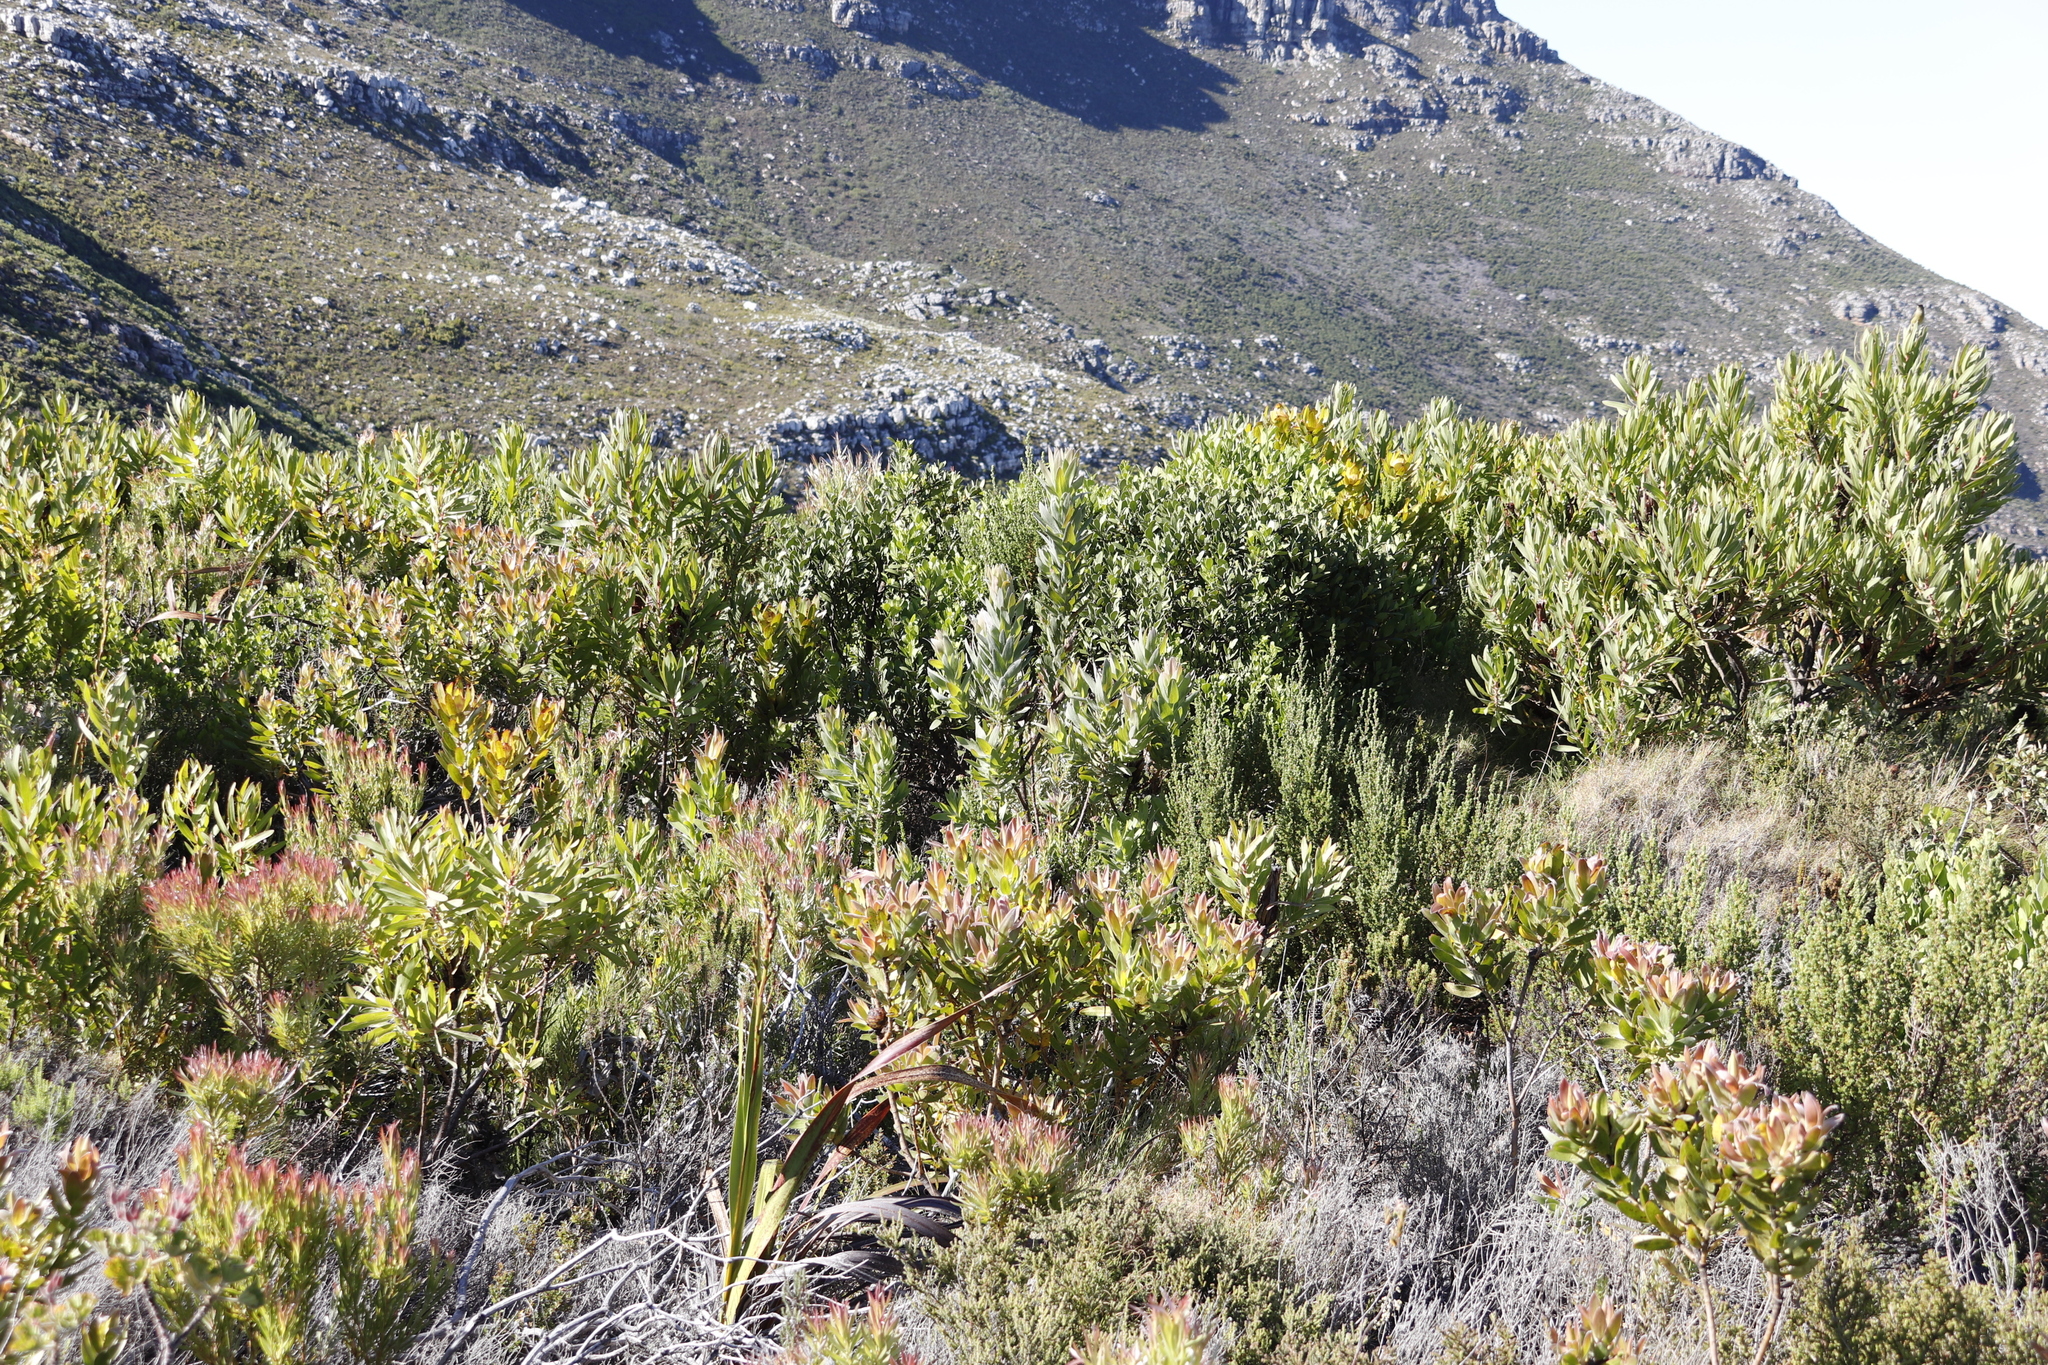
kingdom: Plantae
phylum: Tracheophyta
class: Magnoliopsida
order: Proteales
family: Proteaceae
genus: Protea
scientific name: Protea coronata
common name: Green sugarbush
